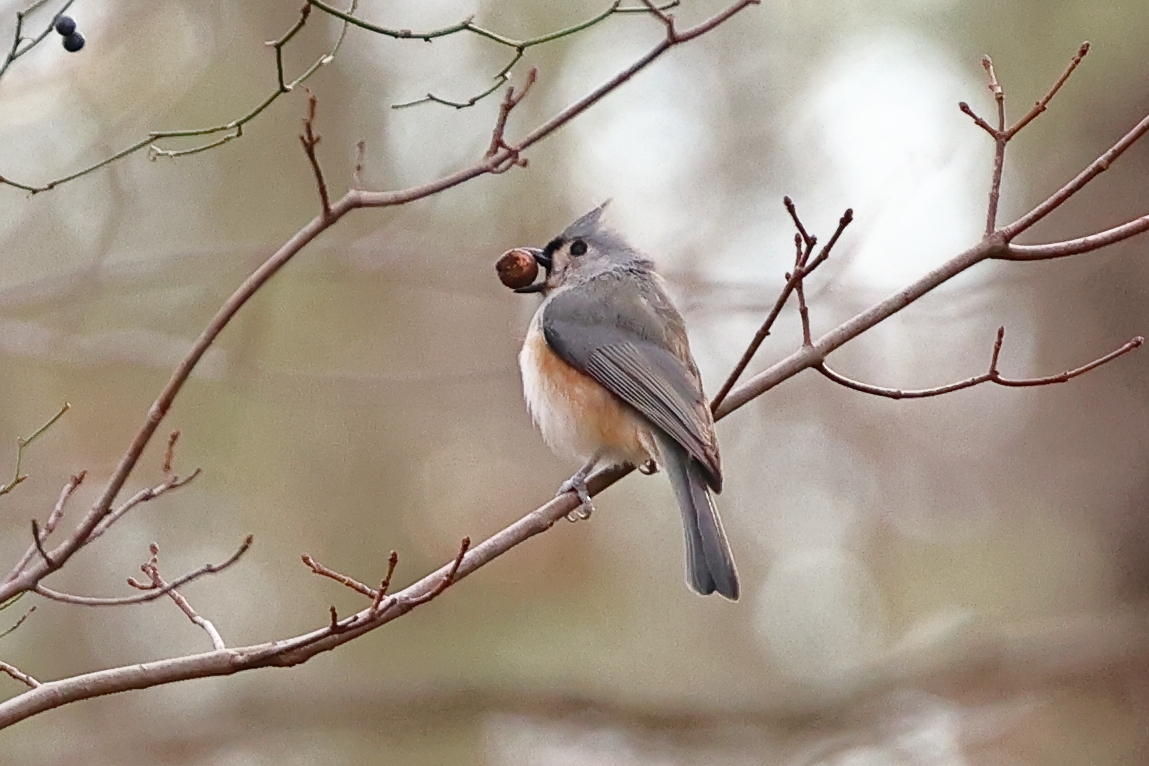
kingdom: Animalia
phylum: Chordata
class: Aves
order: Passeriformes
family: Paridae
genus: Baeolophus
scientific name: Baeolophus bicolor
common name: Tufted titmouse
